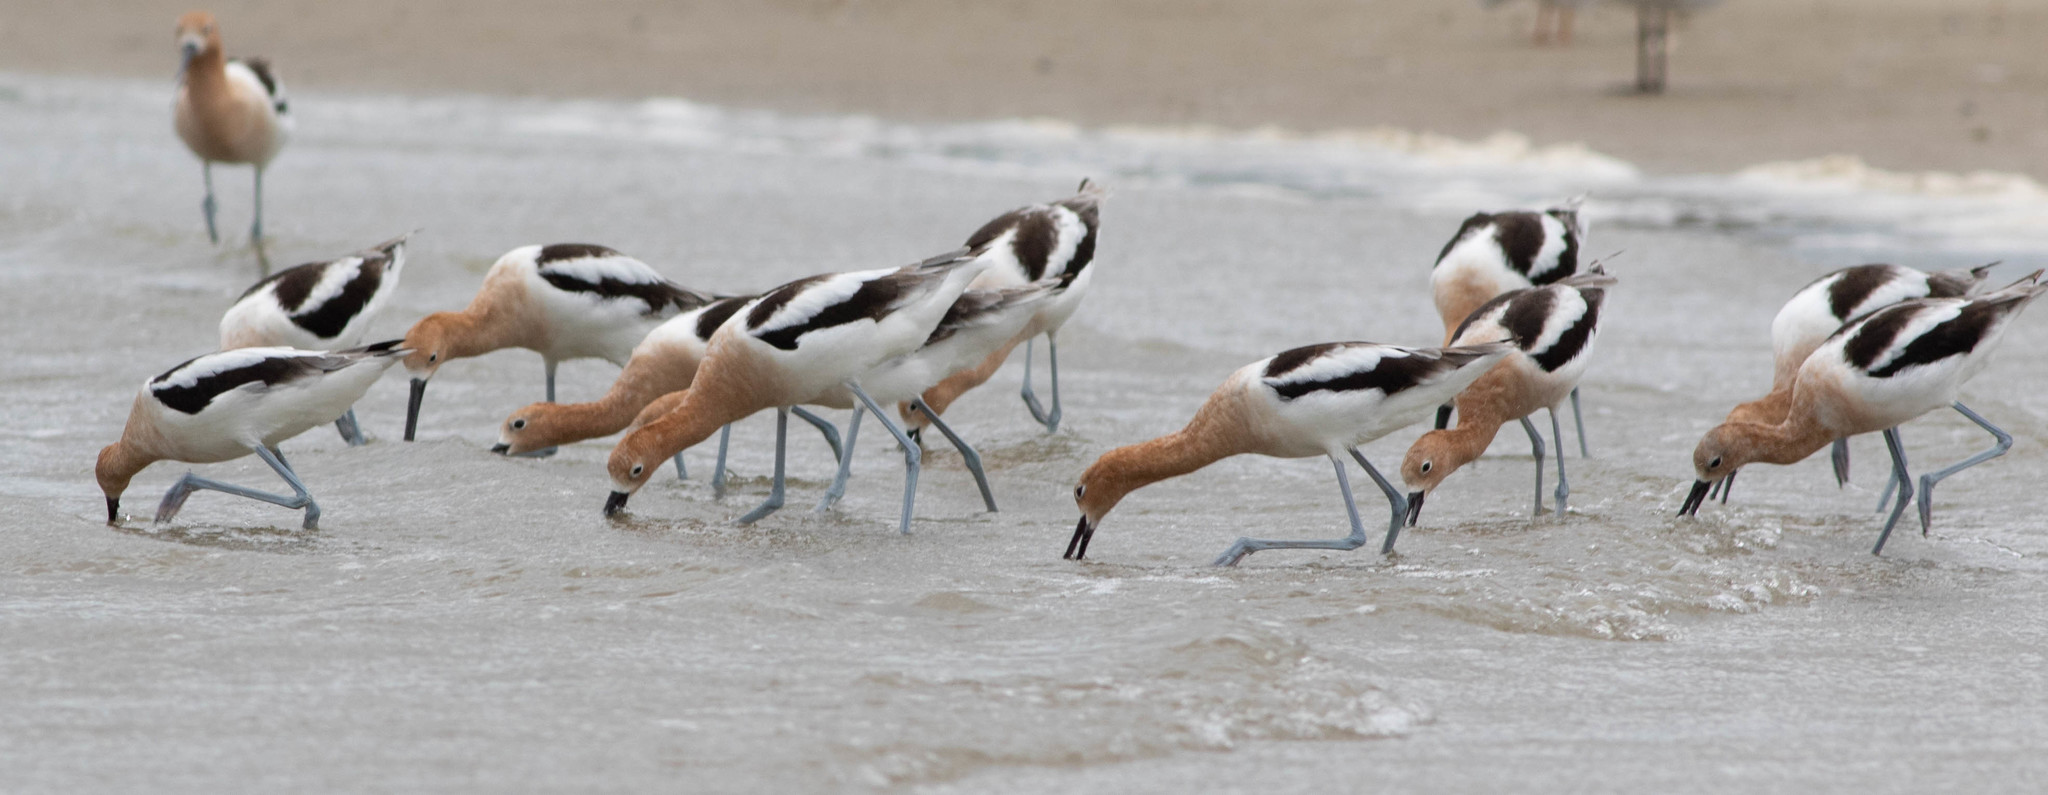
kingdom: Animalia
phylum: Chordata
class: Aves
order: Charadriiformes
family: Recurvirostridae
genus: Recurvirostra
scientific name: Recurvirostra americana
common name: American avocet
